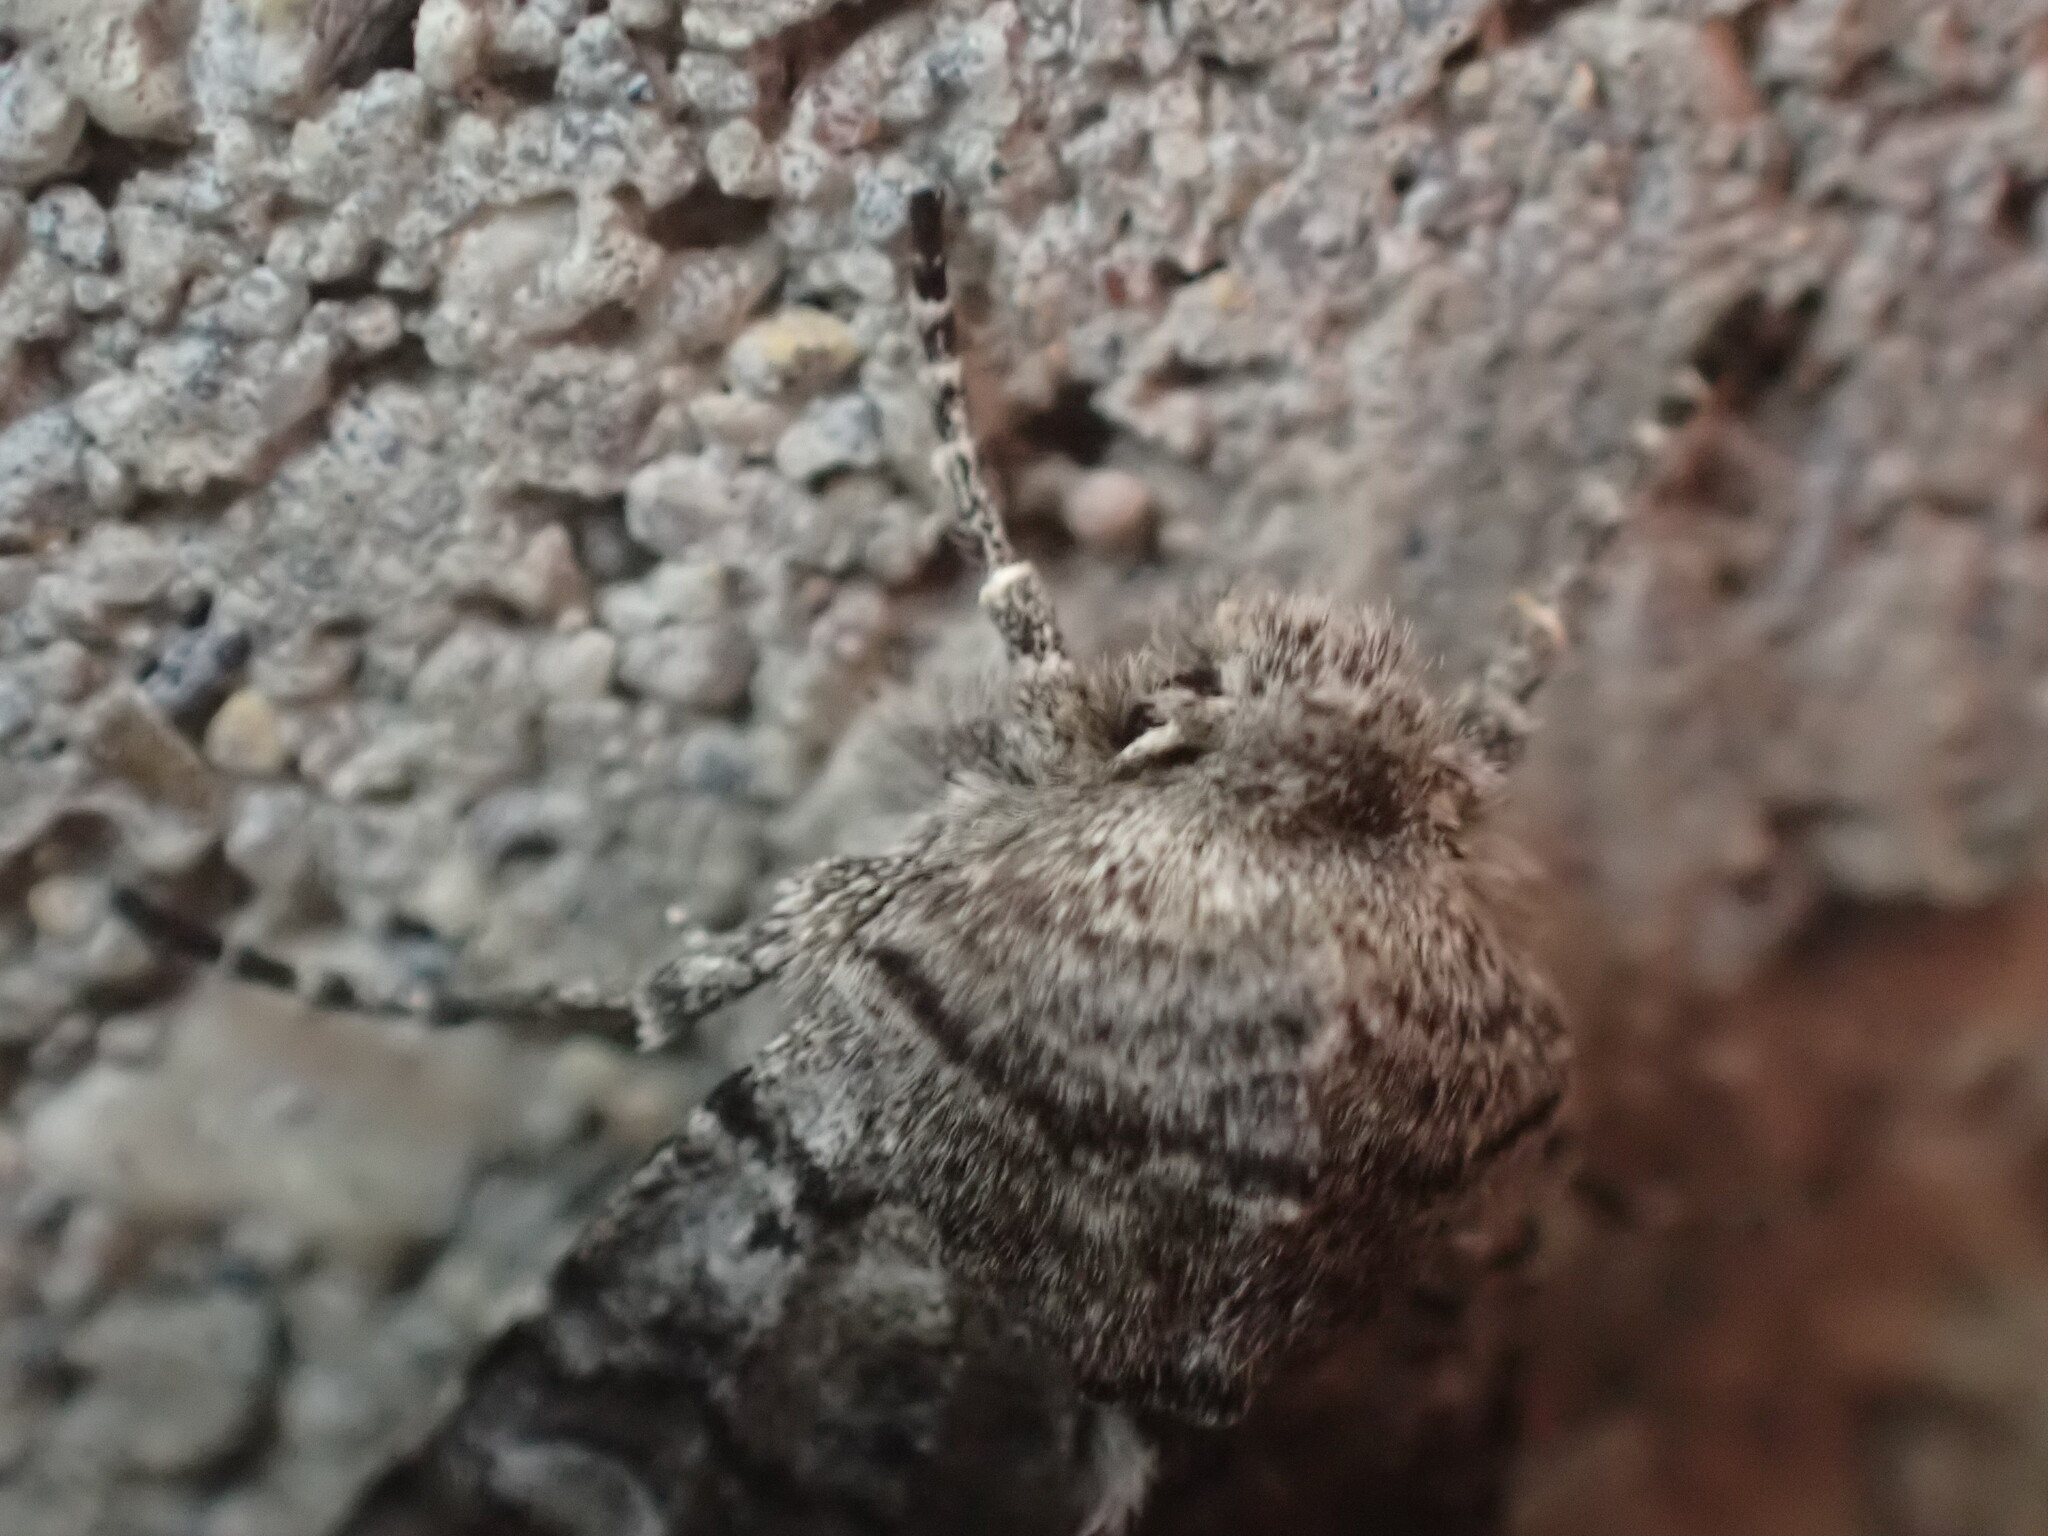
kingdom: Animalia
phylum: Arthropoda
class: Insecta
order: Lepidoptera
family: Noctuidae
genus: Litholomia
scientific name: Litholomia napaea
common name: False pinion moth
